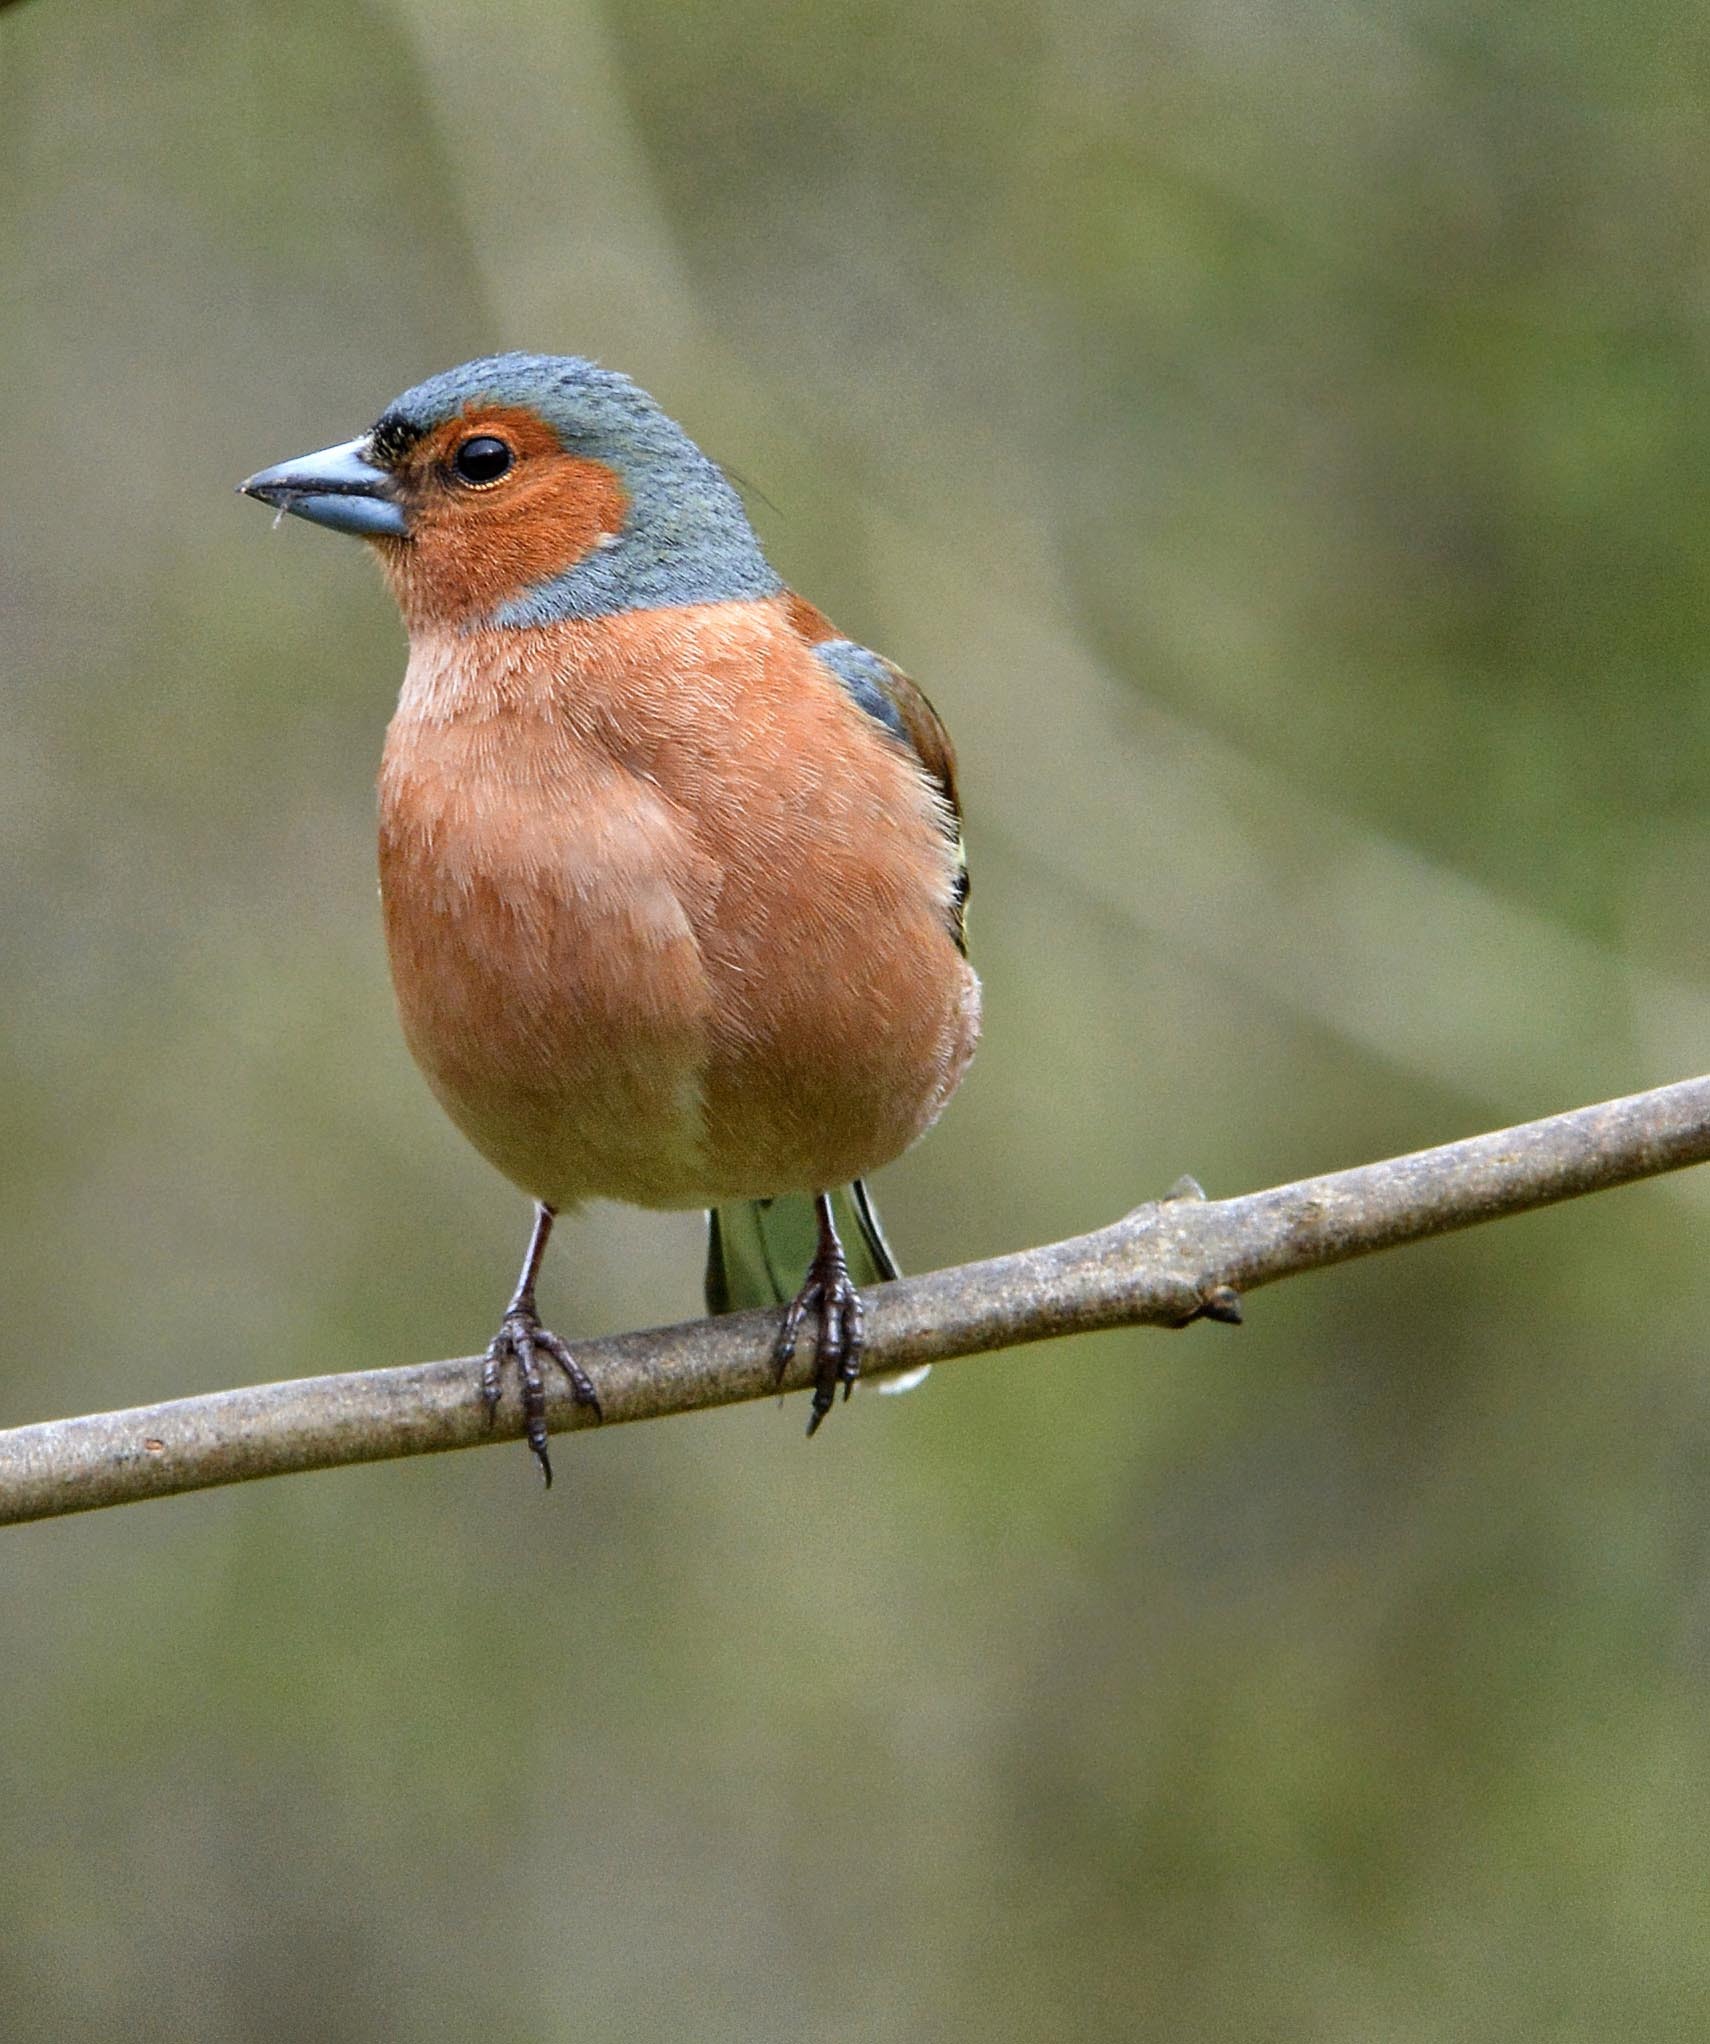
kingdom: Animalia
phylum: Chordata
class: Aves
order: Passeriformes
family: Fringillidae
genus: Fringilla
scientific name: Fringilla coelebs
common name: Common chaffinch
